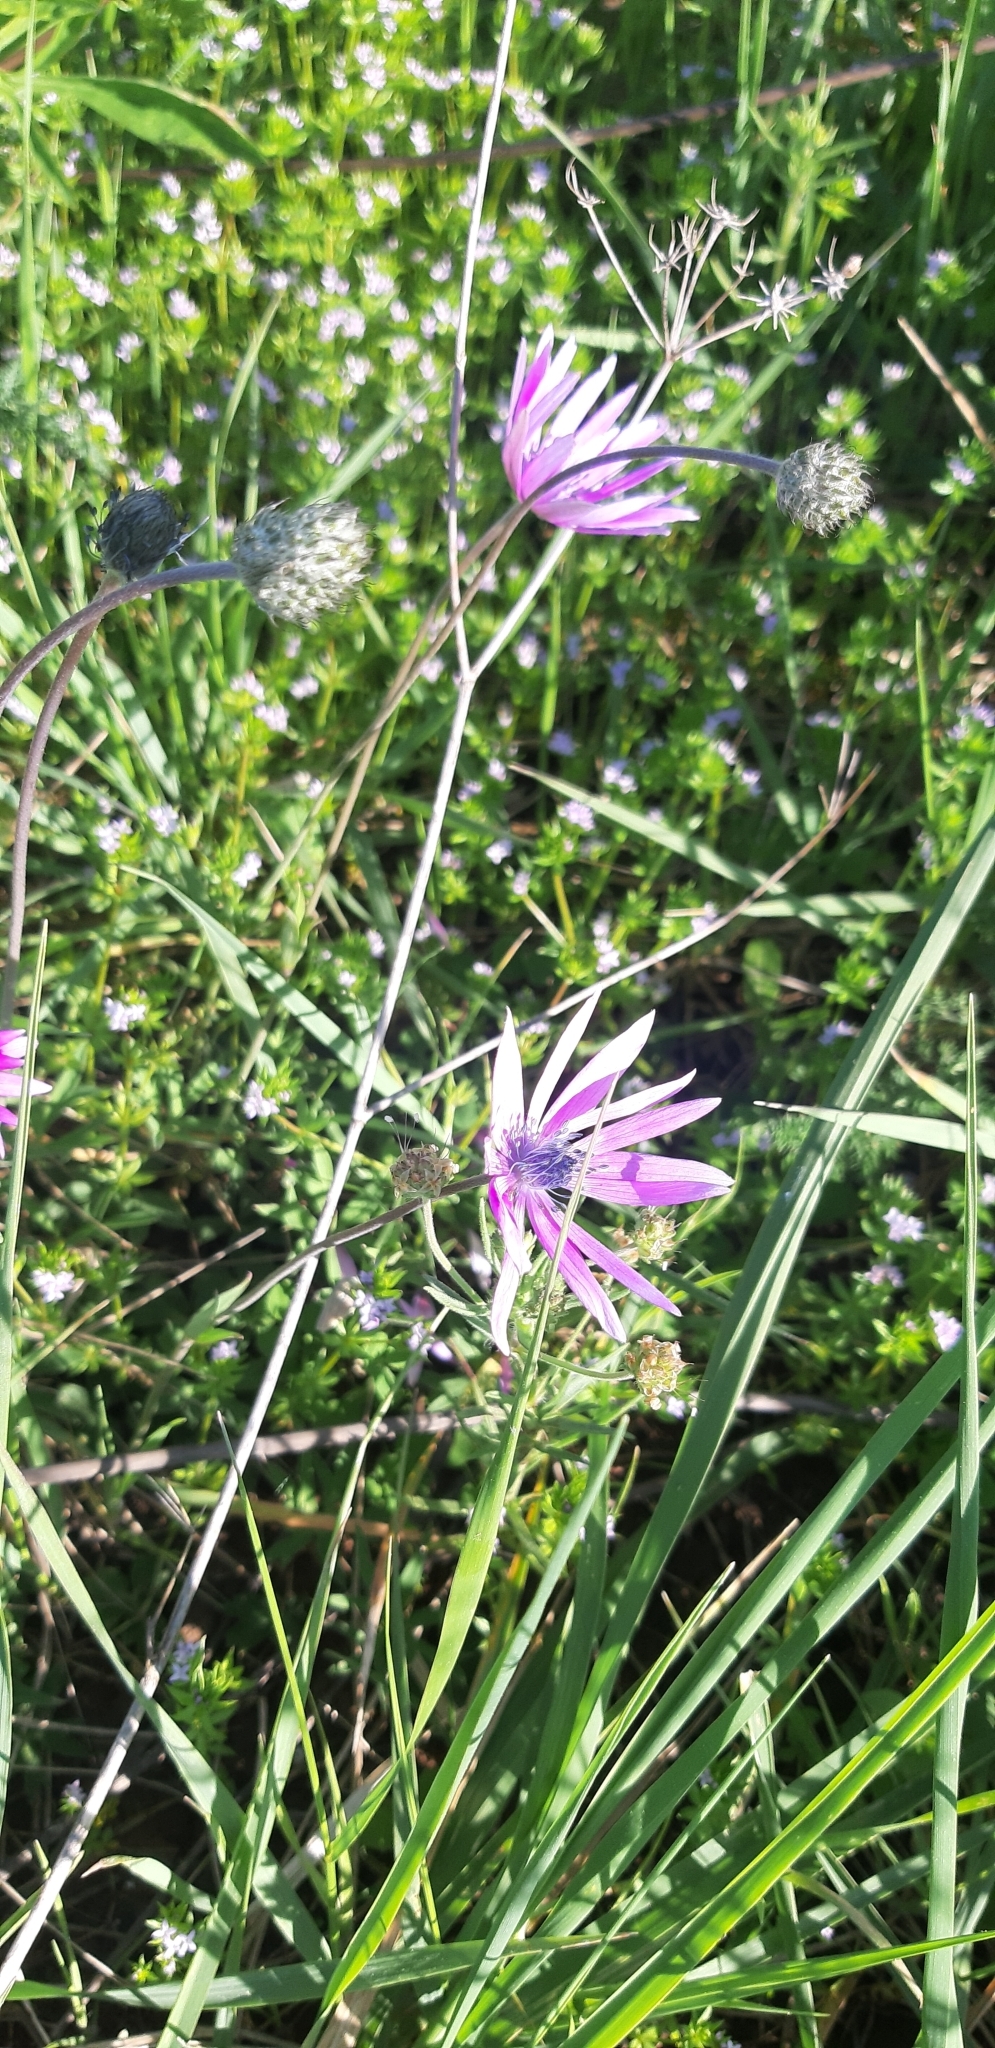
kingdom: Plantae
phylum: Tracheophyta
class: Magnoliopsida
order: Ranunculales
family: Ranunculaceae
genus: Anemone
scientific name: Anemone hortensis
